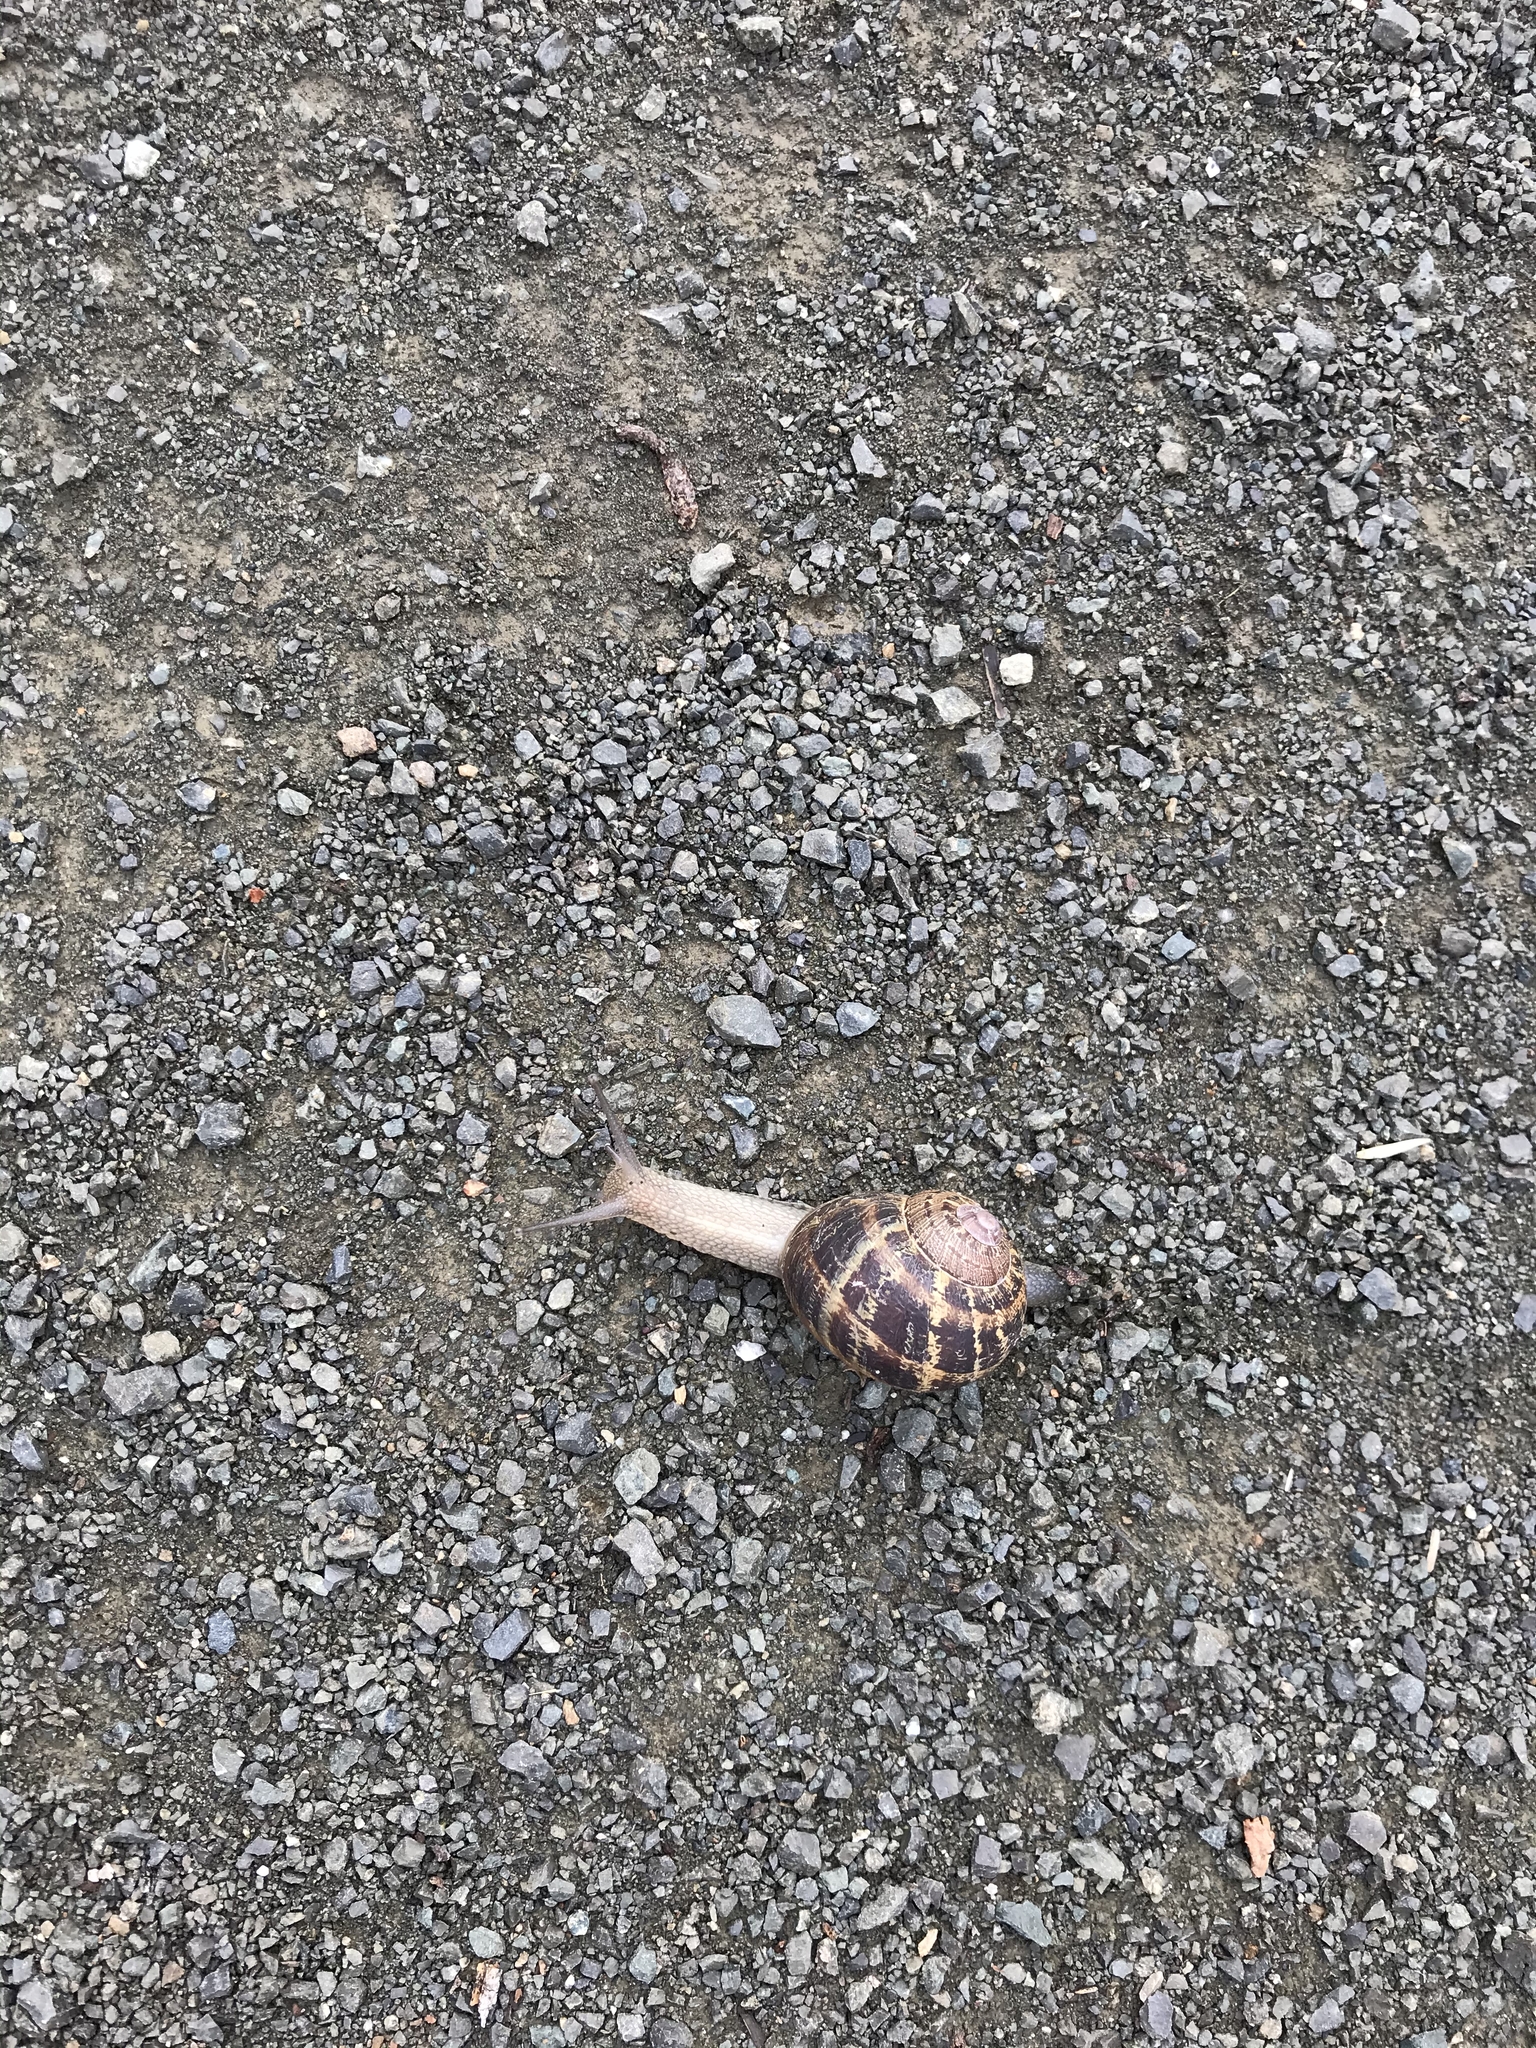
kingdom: Animalia
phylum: Mollusca
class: Gastropoda
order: Stylommatophora
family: Helicidae
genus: Cornu
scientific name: Cornu aspersum
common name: Brown garden snail
